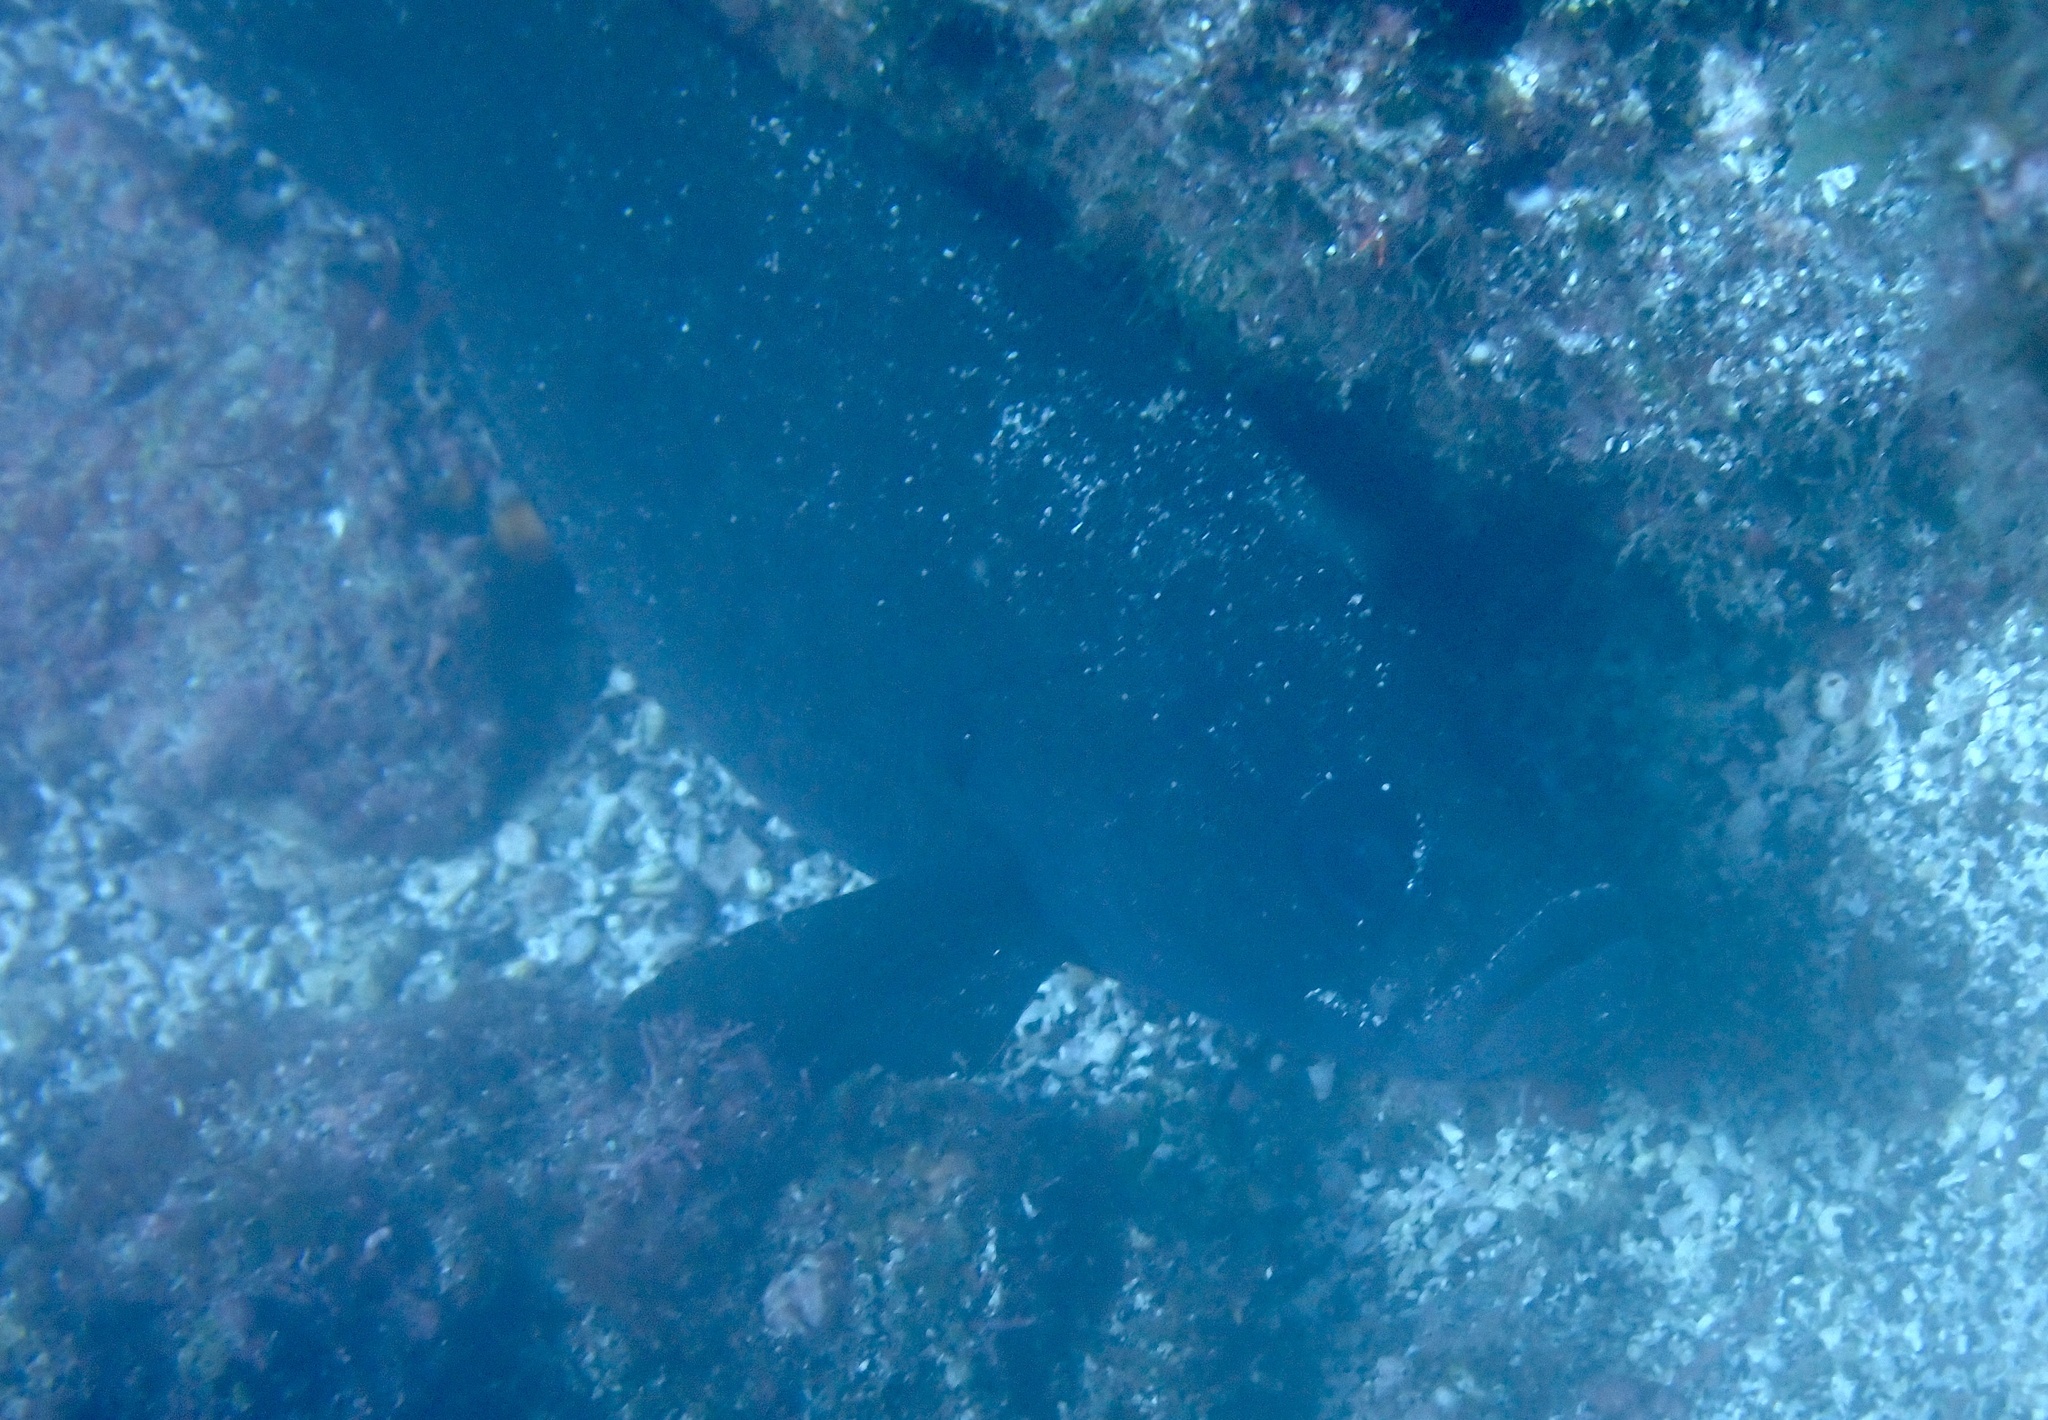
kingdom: Animalia
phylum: Chordata
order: Perciformes
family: Serranidae
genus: Rypticus
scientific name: Rypticus saponaceus
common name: Soapfish
